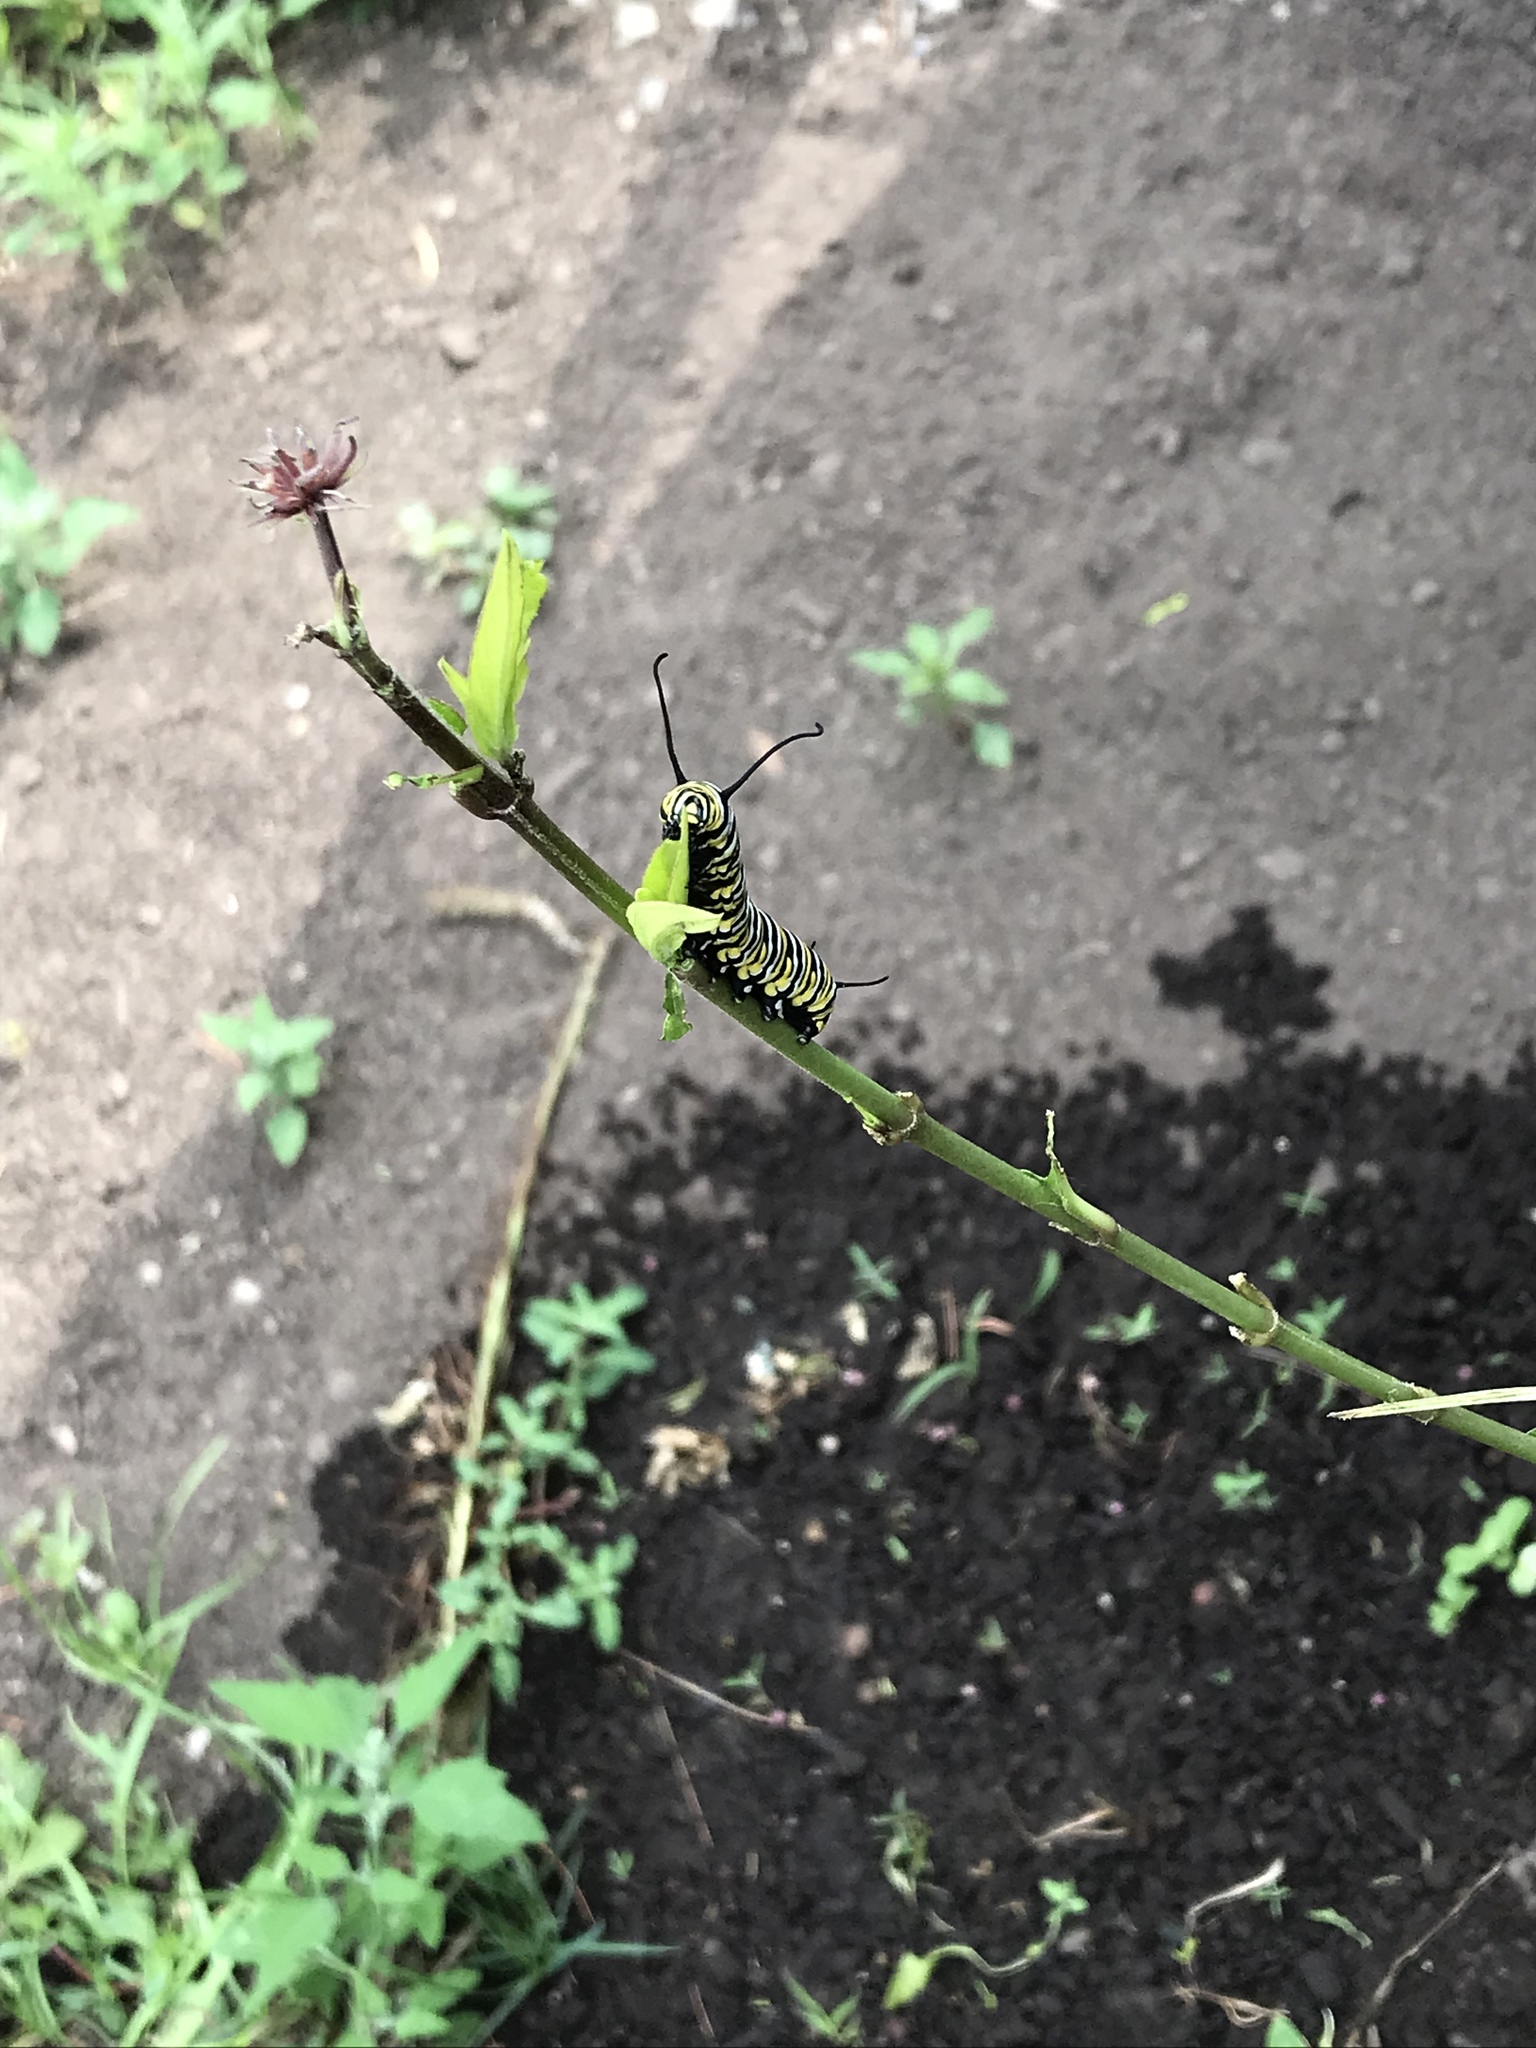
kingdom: Animalia
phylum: Arthropoda
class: Insecta
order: Lepidoptera
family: Nymphalidae
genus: Danaus
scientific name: Danaus plexippus
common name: Monarch
